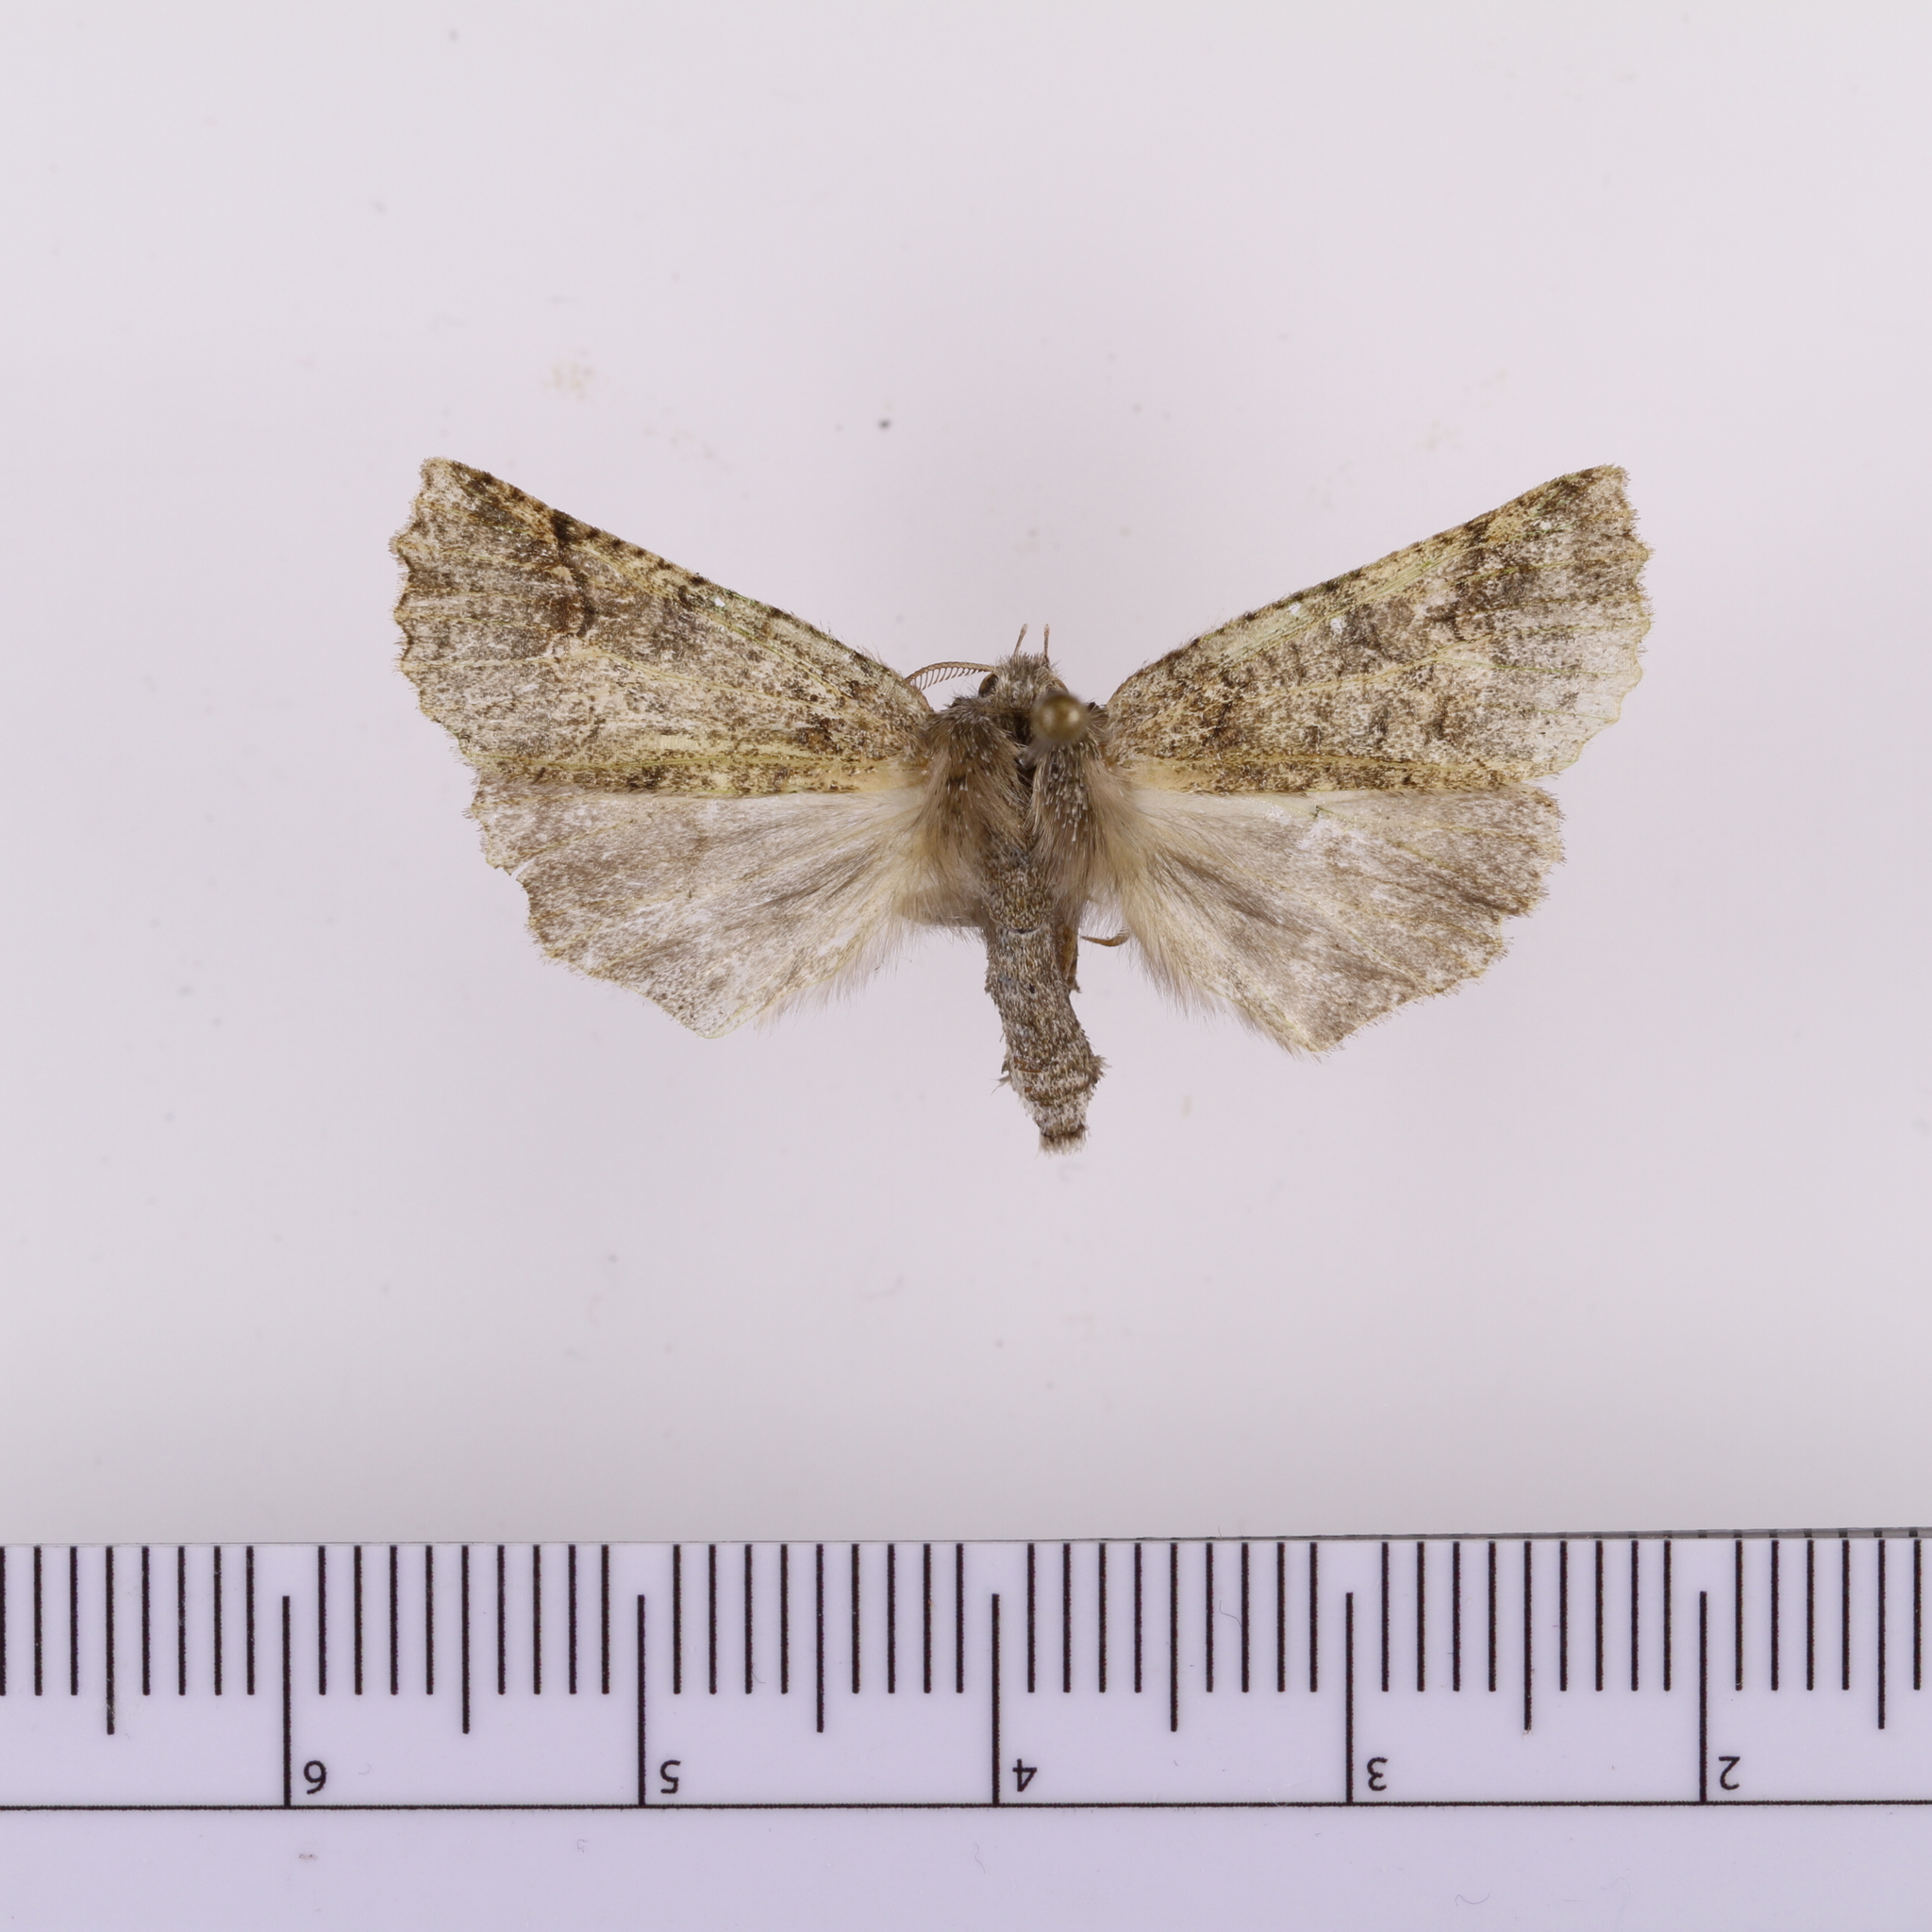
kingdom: Animalia
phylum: Arthropoda
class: Insecta
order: Lepidoptera
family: Geometridae
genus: Declana
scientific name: Declana floccosa
